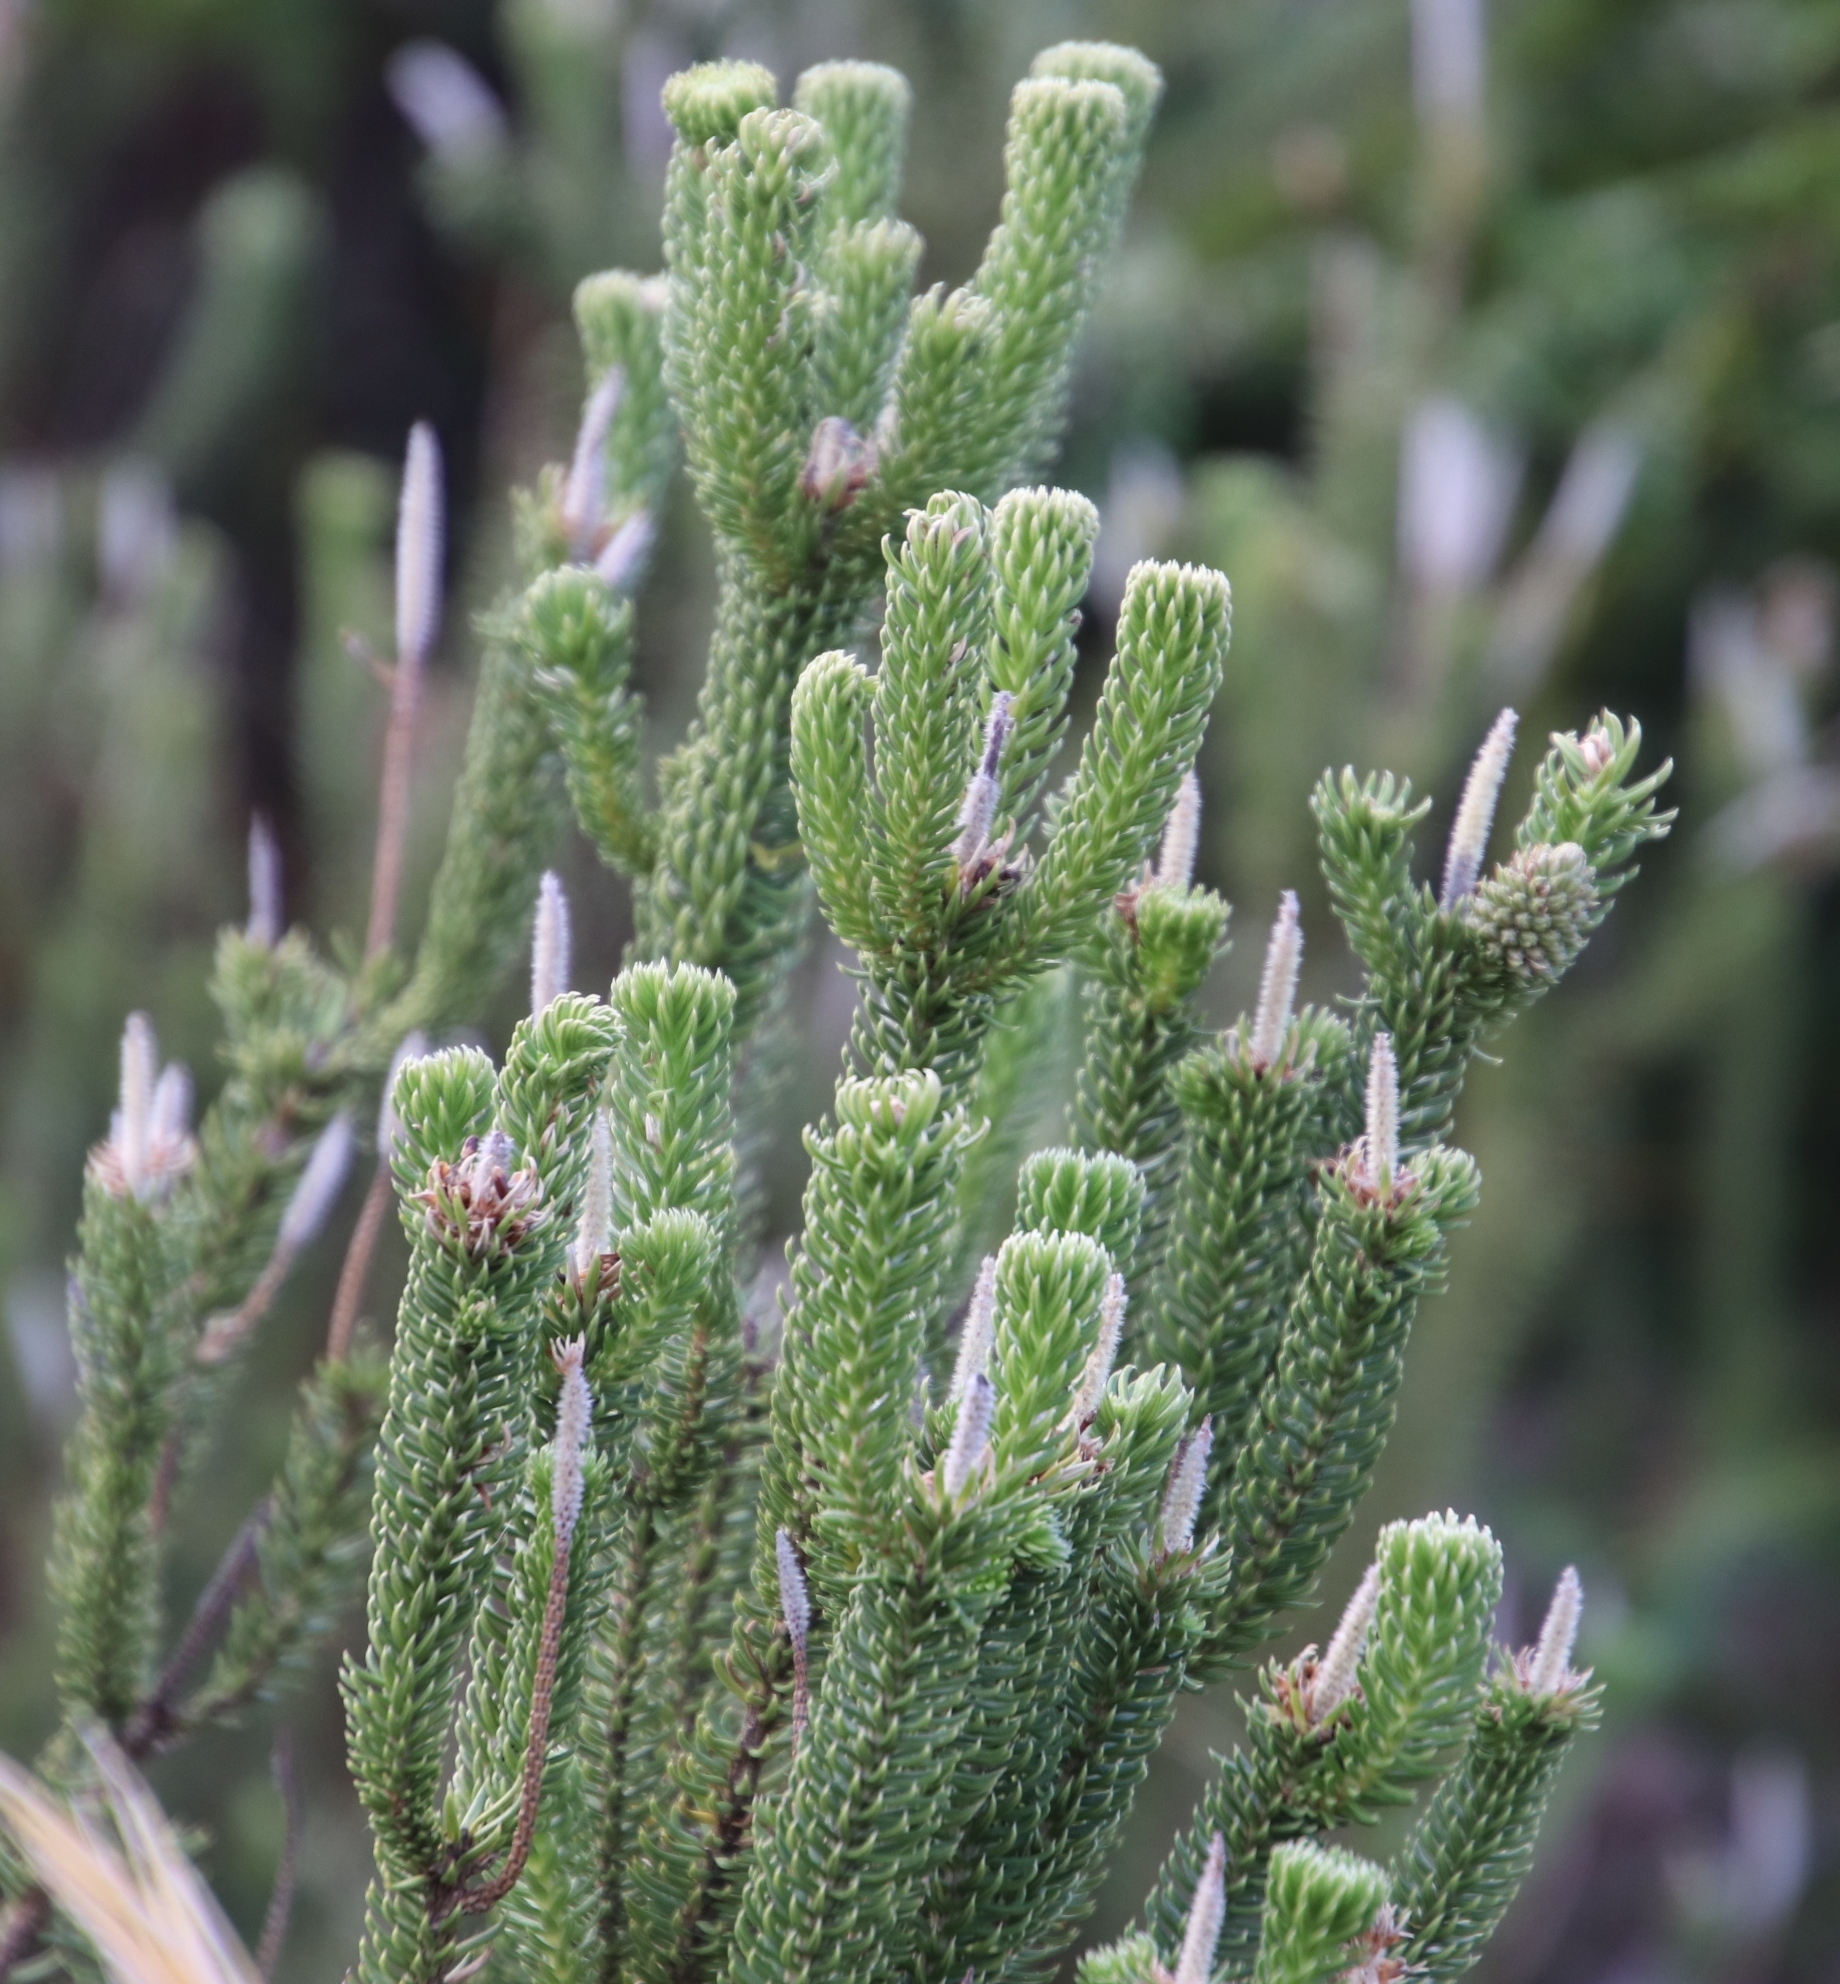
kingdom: Plantae
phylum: Tracheophyta
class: Magnoliopsida
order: Lamiales
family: Stilbaceae
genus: Stilbe
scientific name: Stilbe vestita
